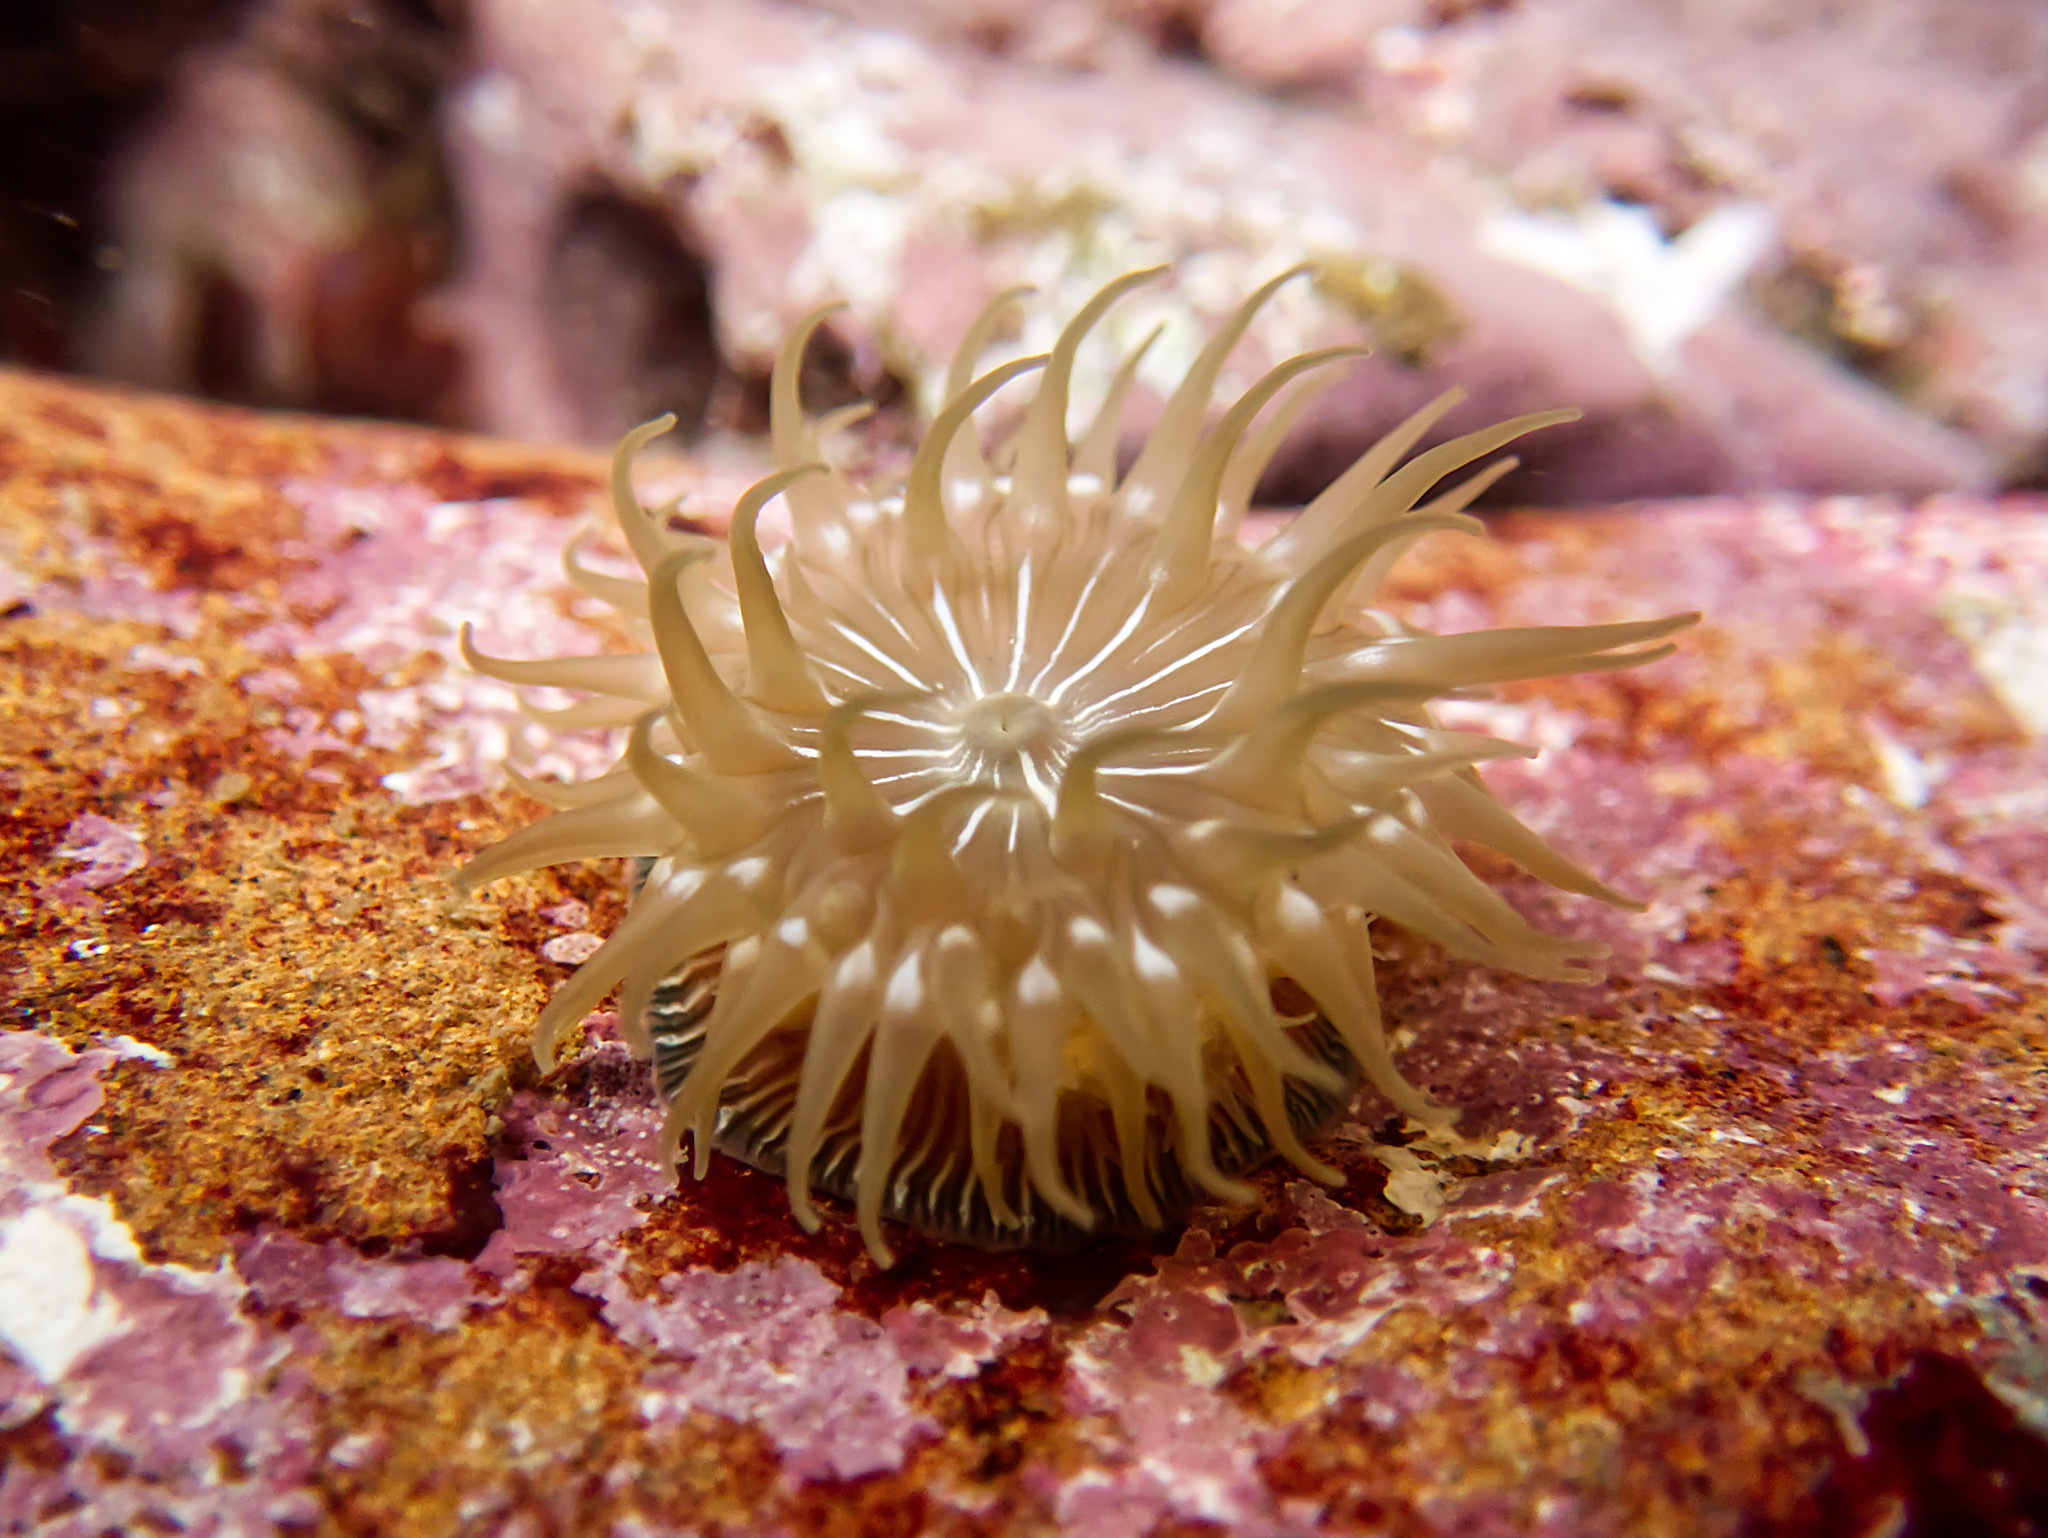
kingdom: Animalia
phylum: Cnidaria
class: Anthozoa
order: Actiniaria
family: Actiniidae
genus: Epiactis
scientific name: Epiactis prolifera
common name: Brooding anemone
